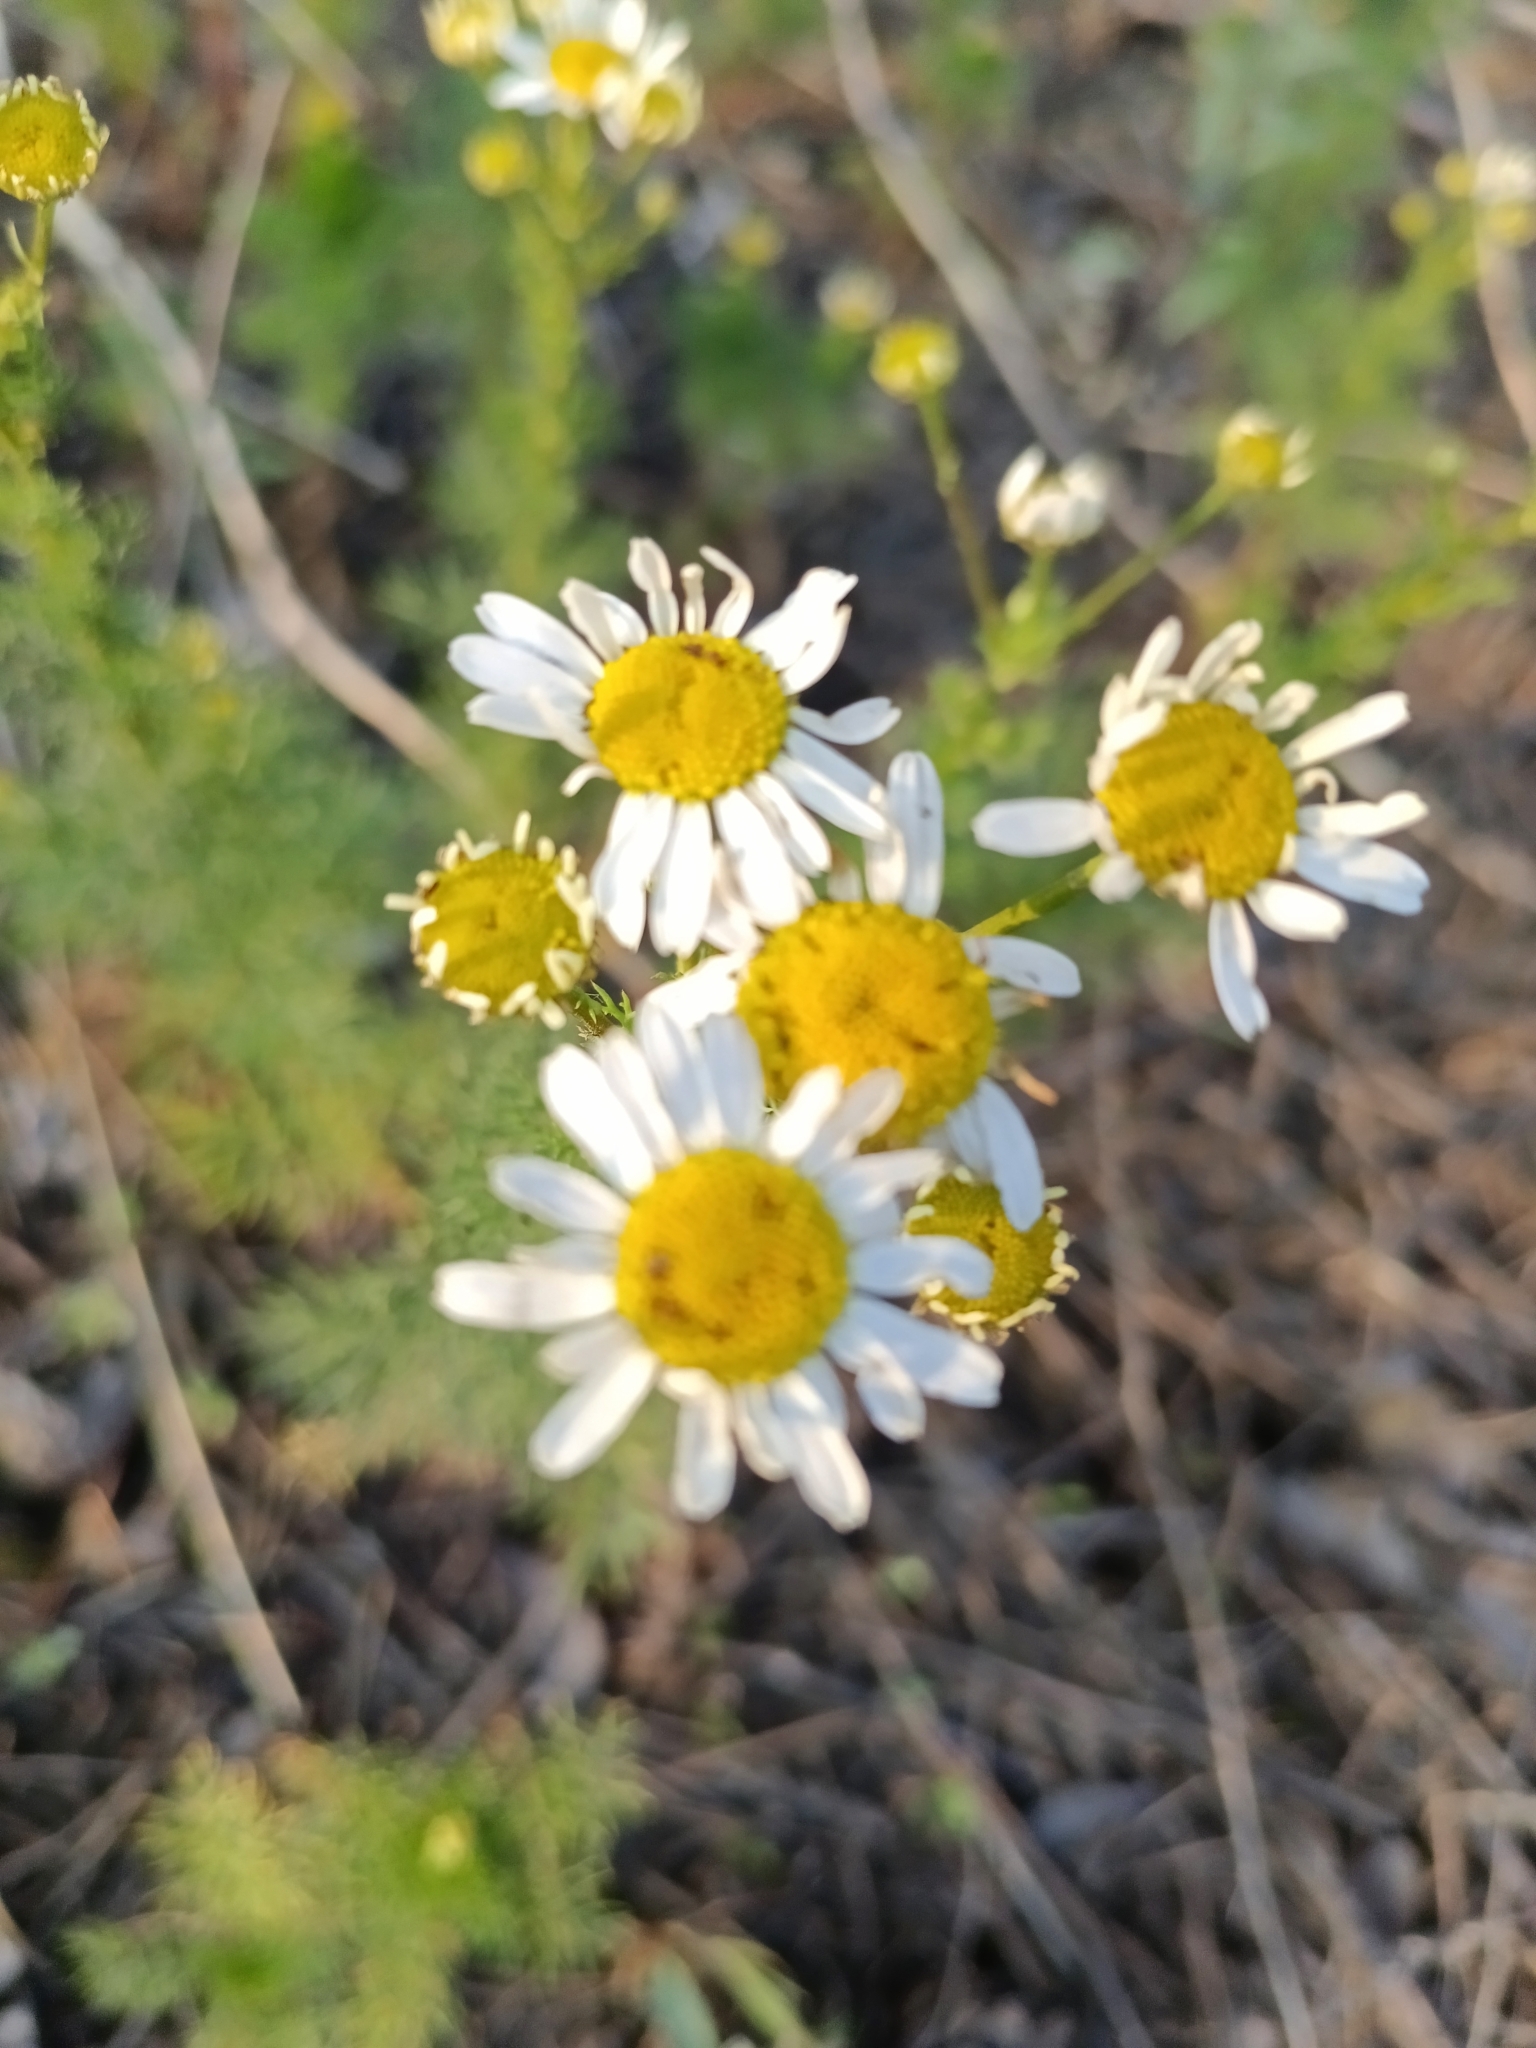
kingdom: Plantae
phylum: Tracheophyta
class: Magnoliopsida
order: Asterales
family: Asteraceae
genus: Tripleurospermum
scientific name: Tripleurospermum inodorum
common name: Scentless mayweed
